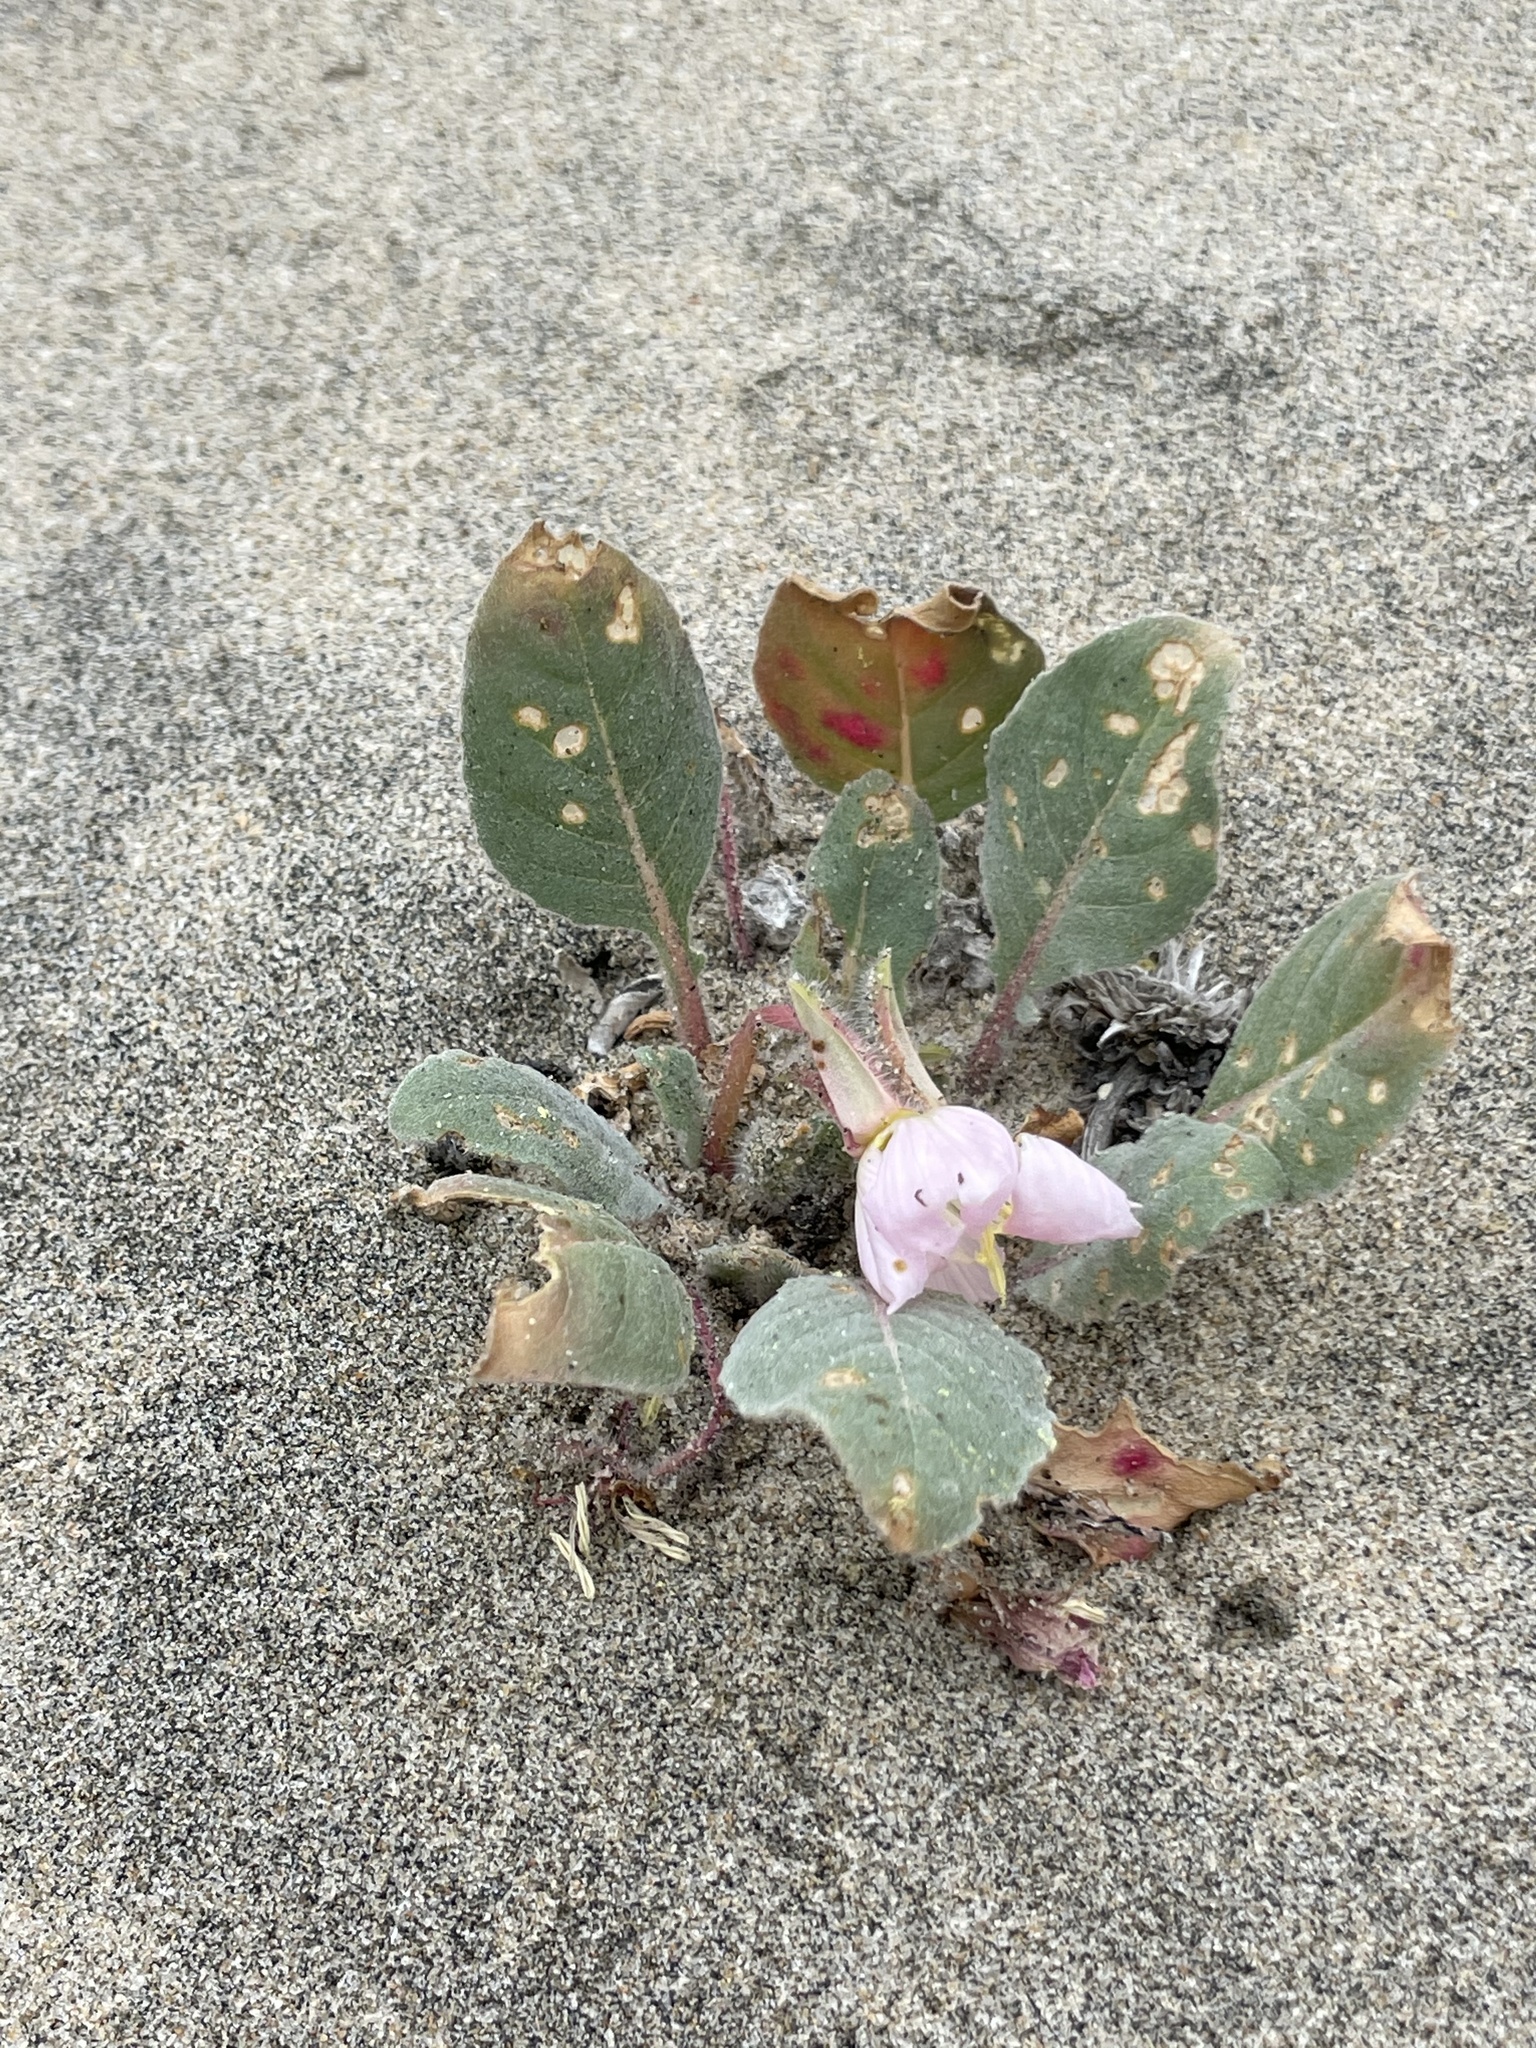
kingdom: Plantae
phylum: Tracheophyta
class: Magnoliopsida
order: Myrtales
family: Onagraceae
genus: Oenothera
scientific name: Oenothera wigginsii
